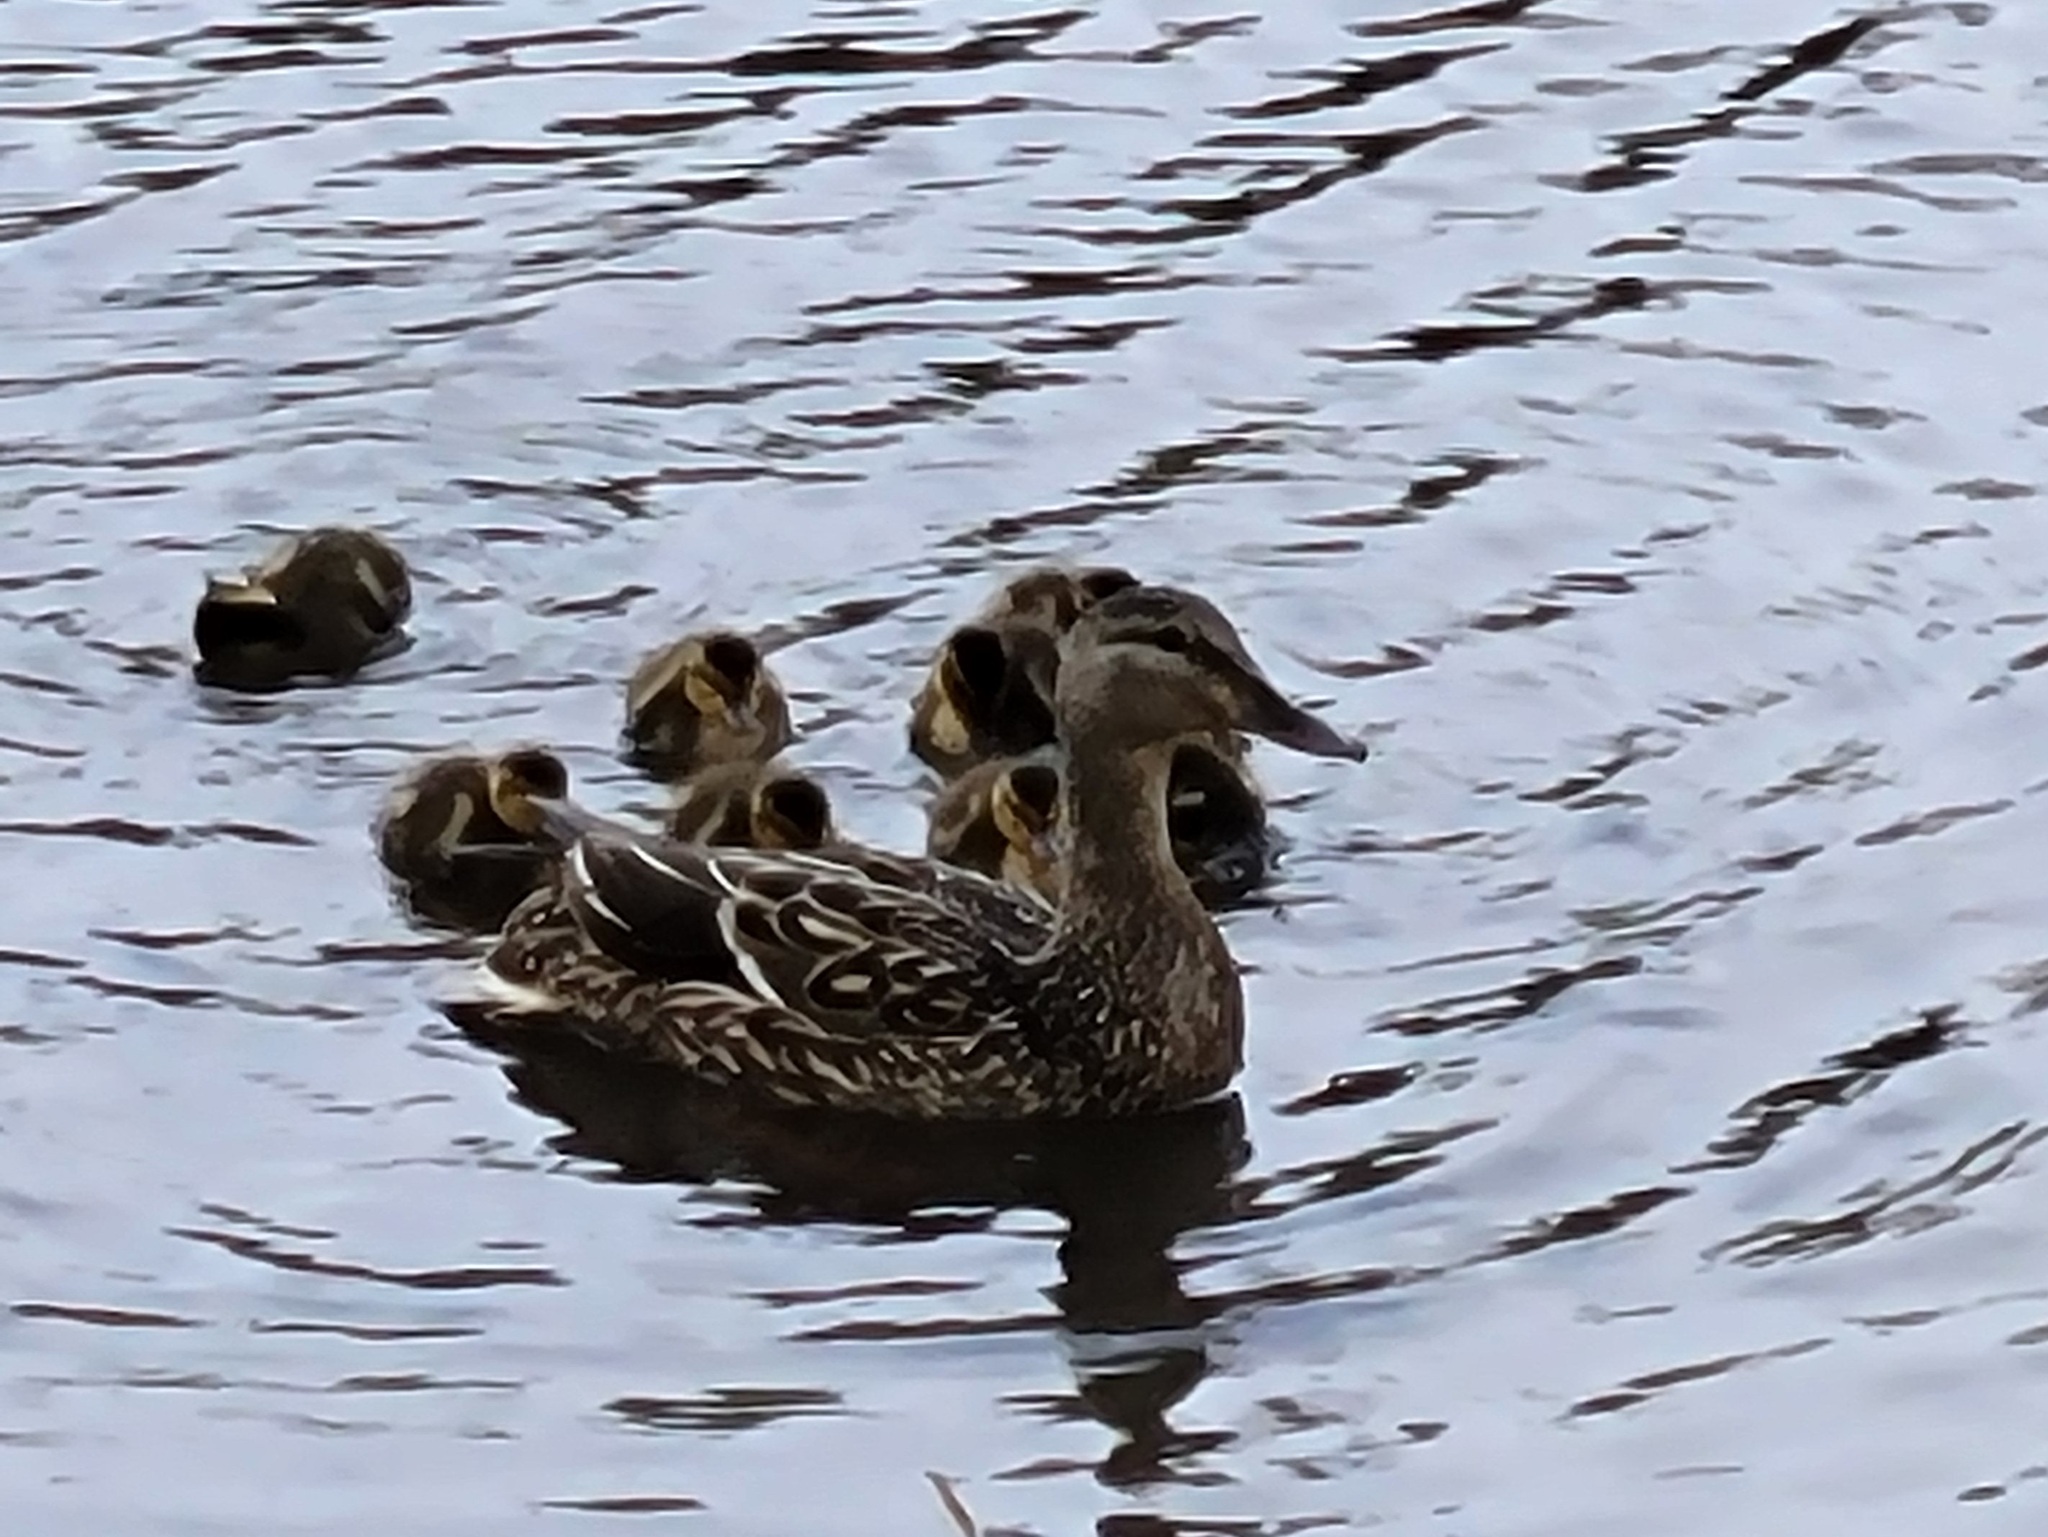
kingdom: Animalia
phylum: Chordata
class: Aves
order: Anseriformes
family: Anatidae
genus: Anas
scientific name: Anas platyrhynchos
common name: Mallard
